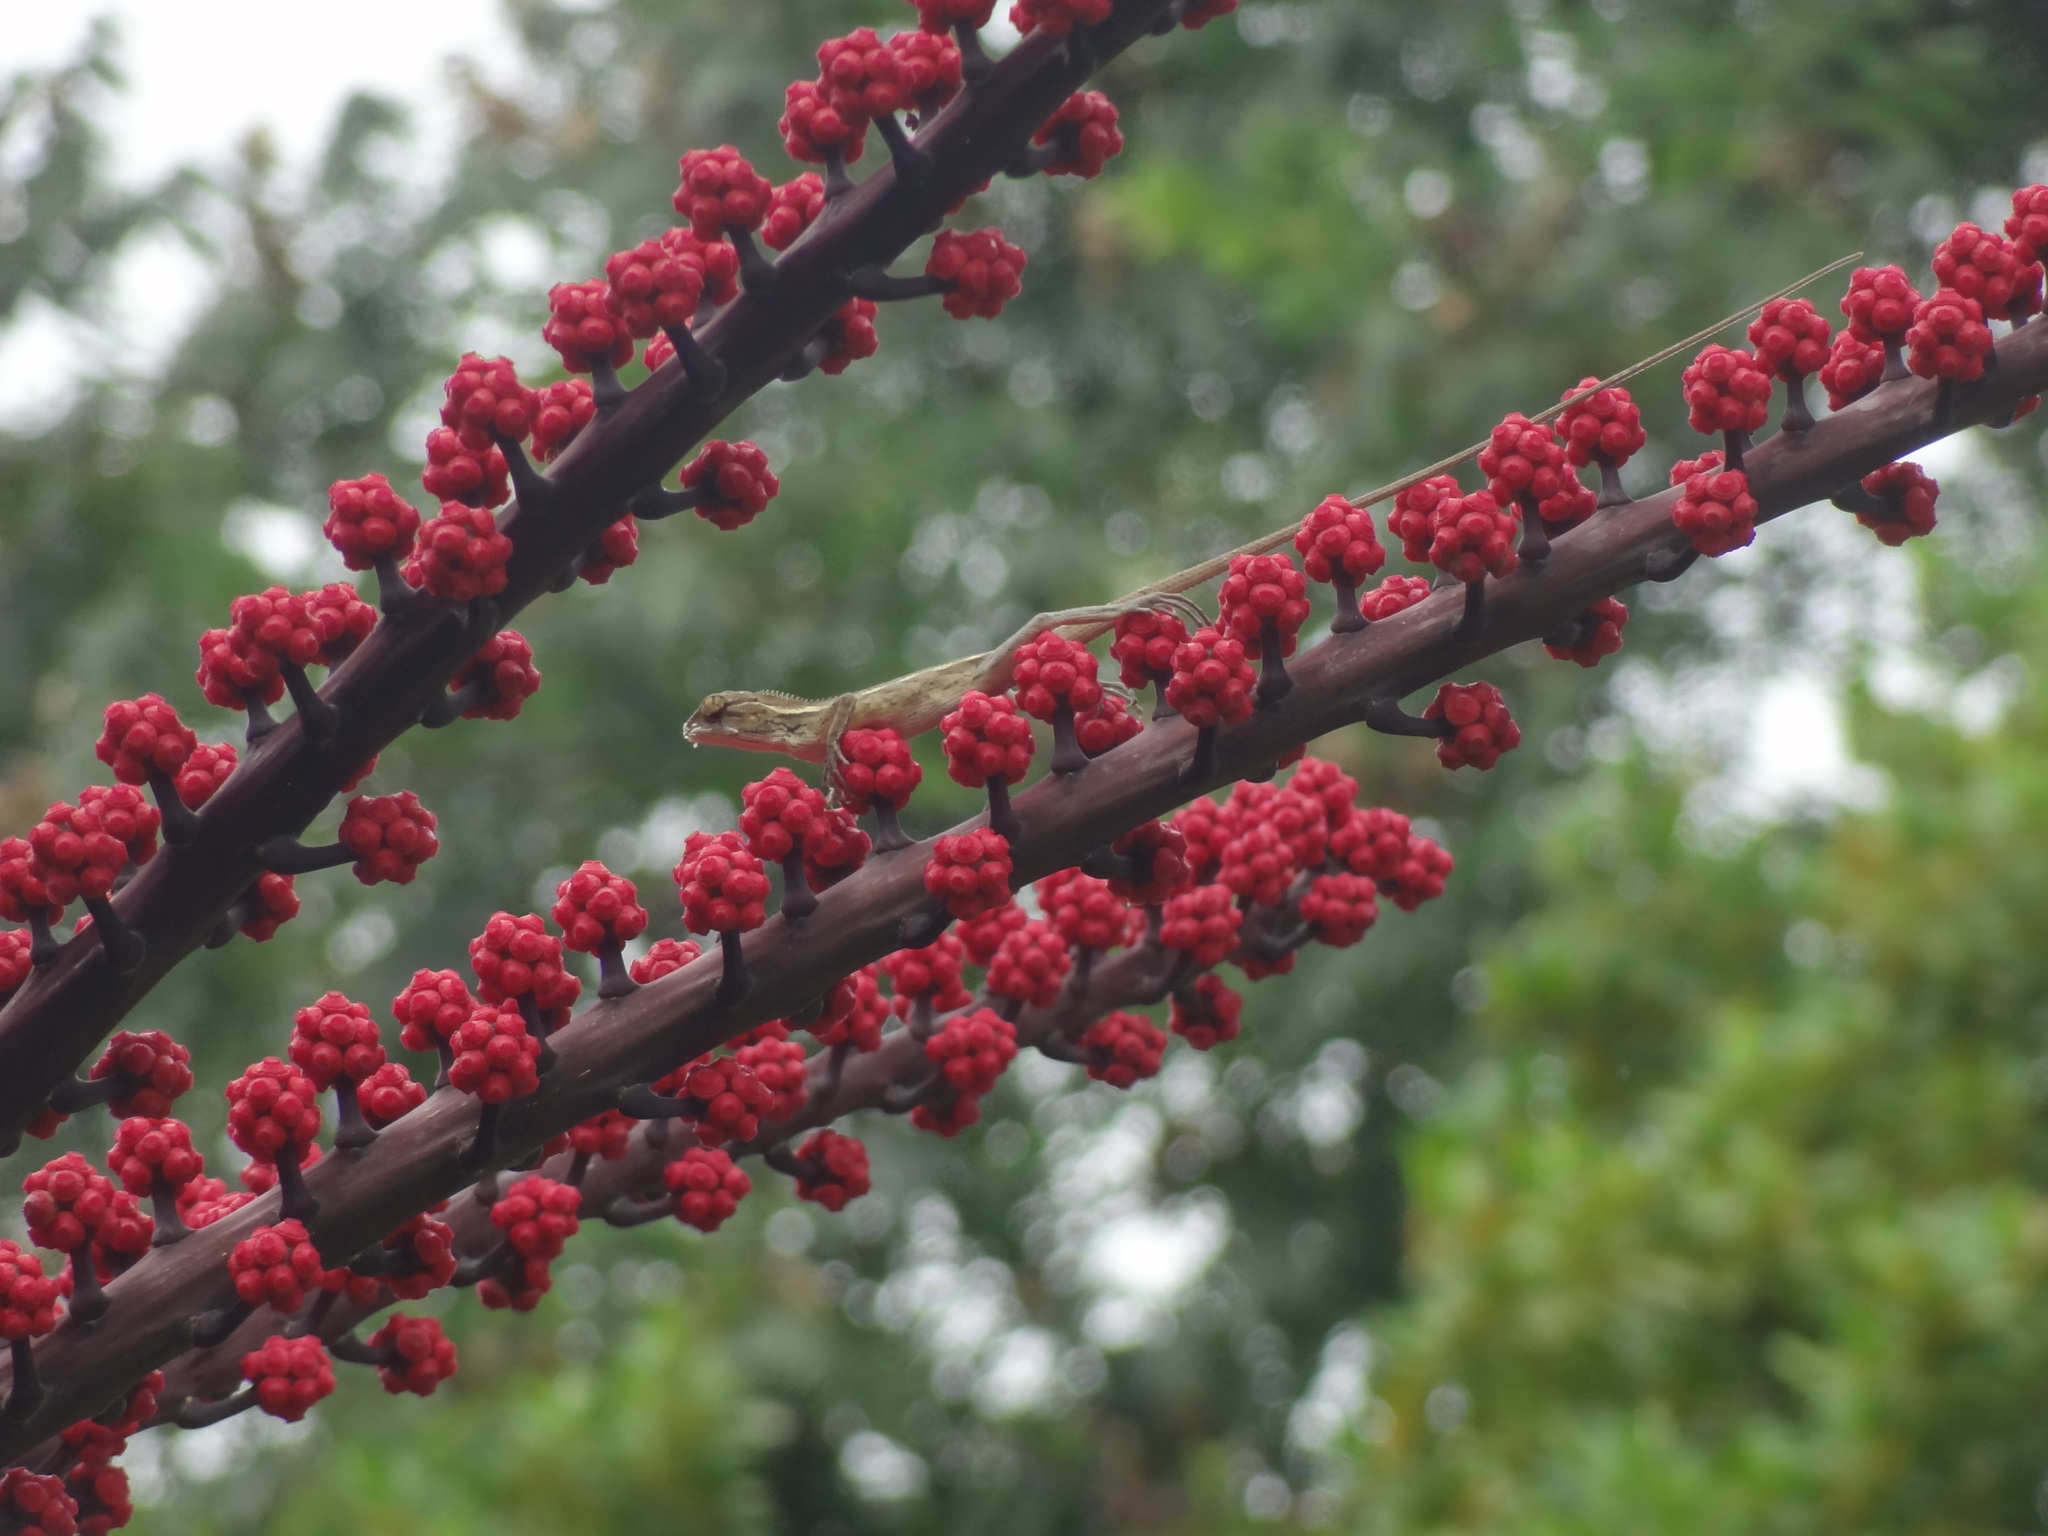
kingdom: Animalia
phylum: Chordata
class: Squamata
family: Agamidae
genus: Calotes
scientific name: Calotes versicolor
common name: Oriental garden lizard
